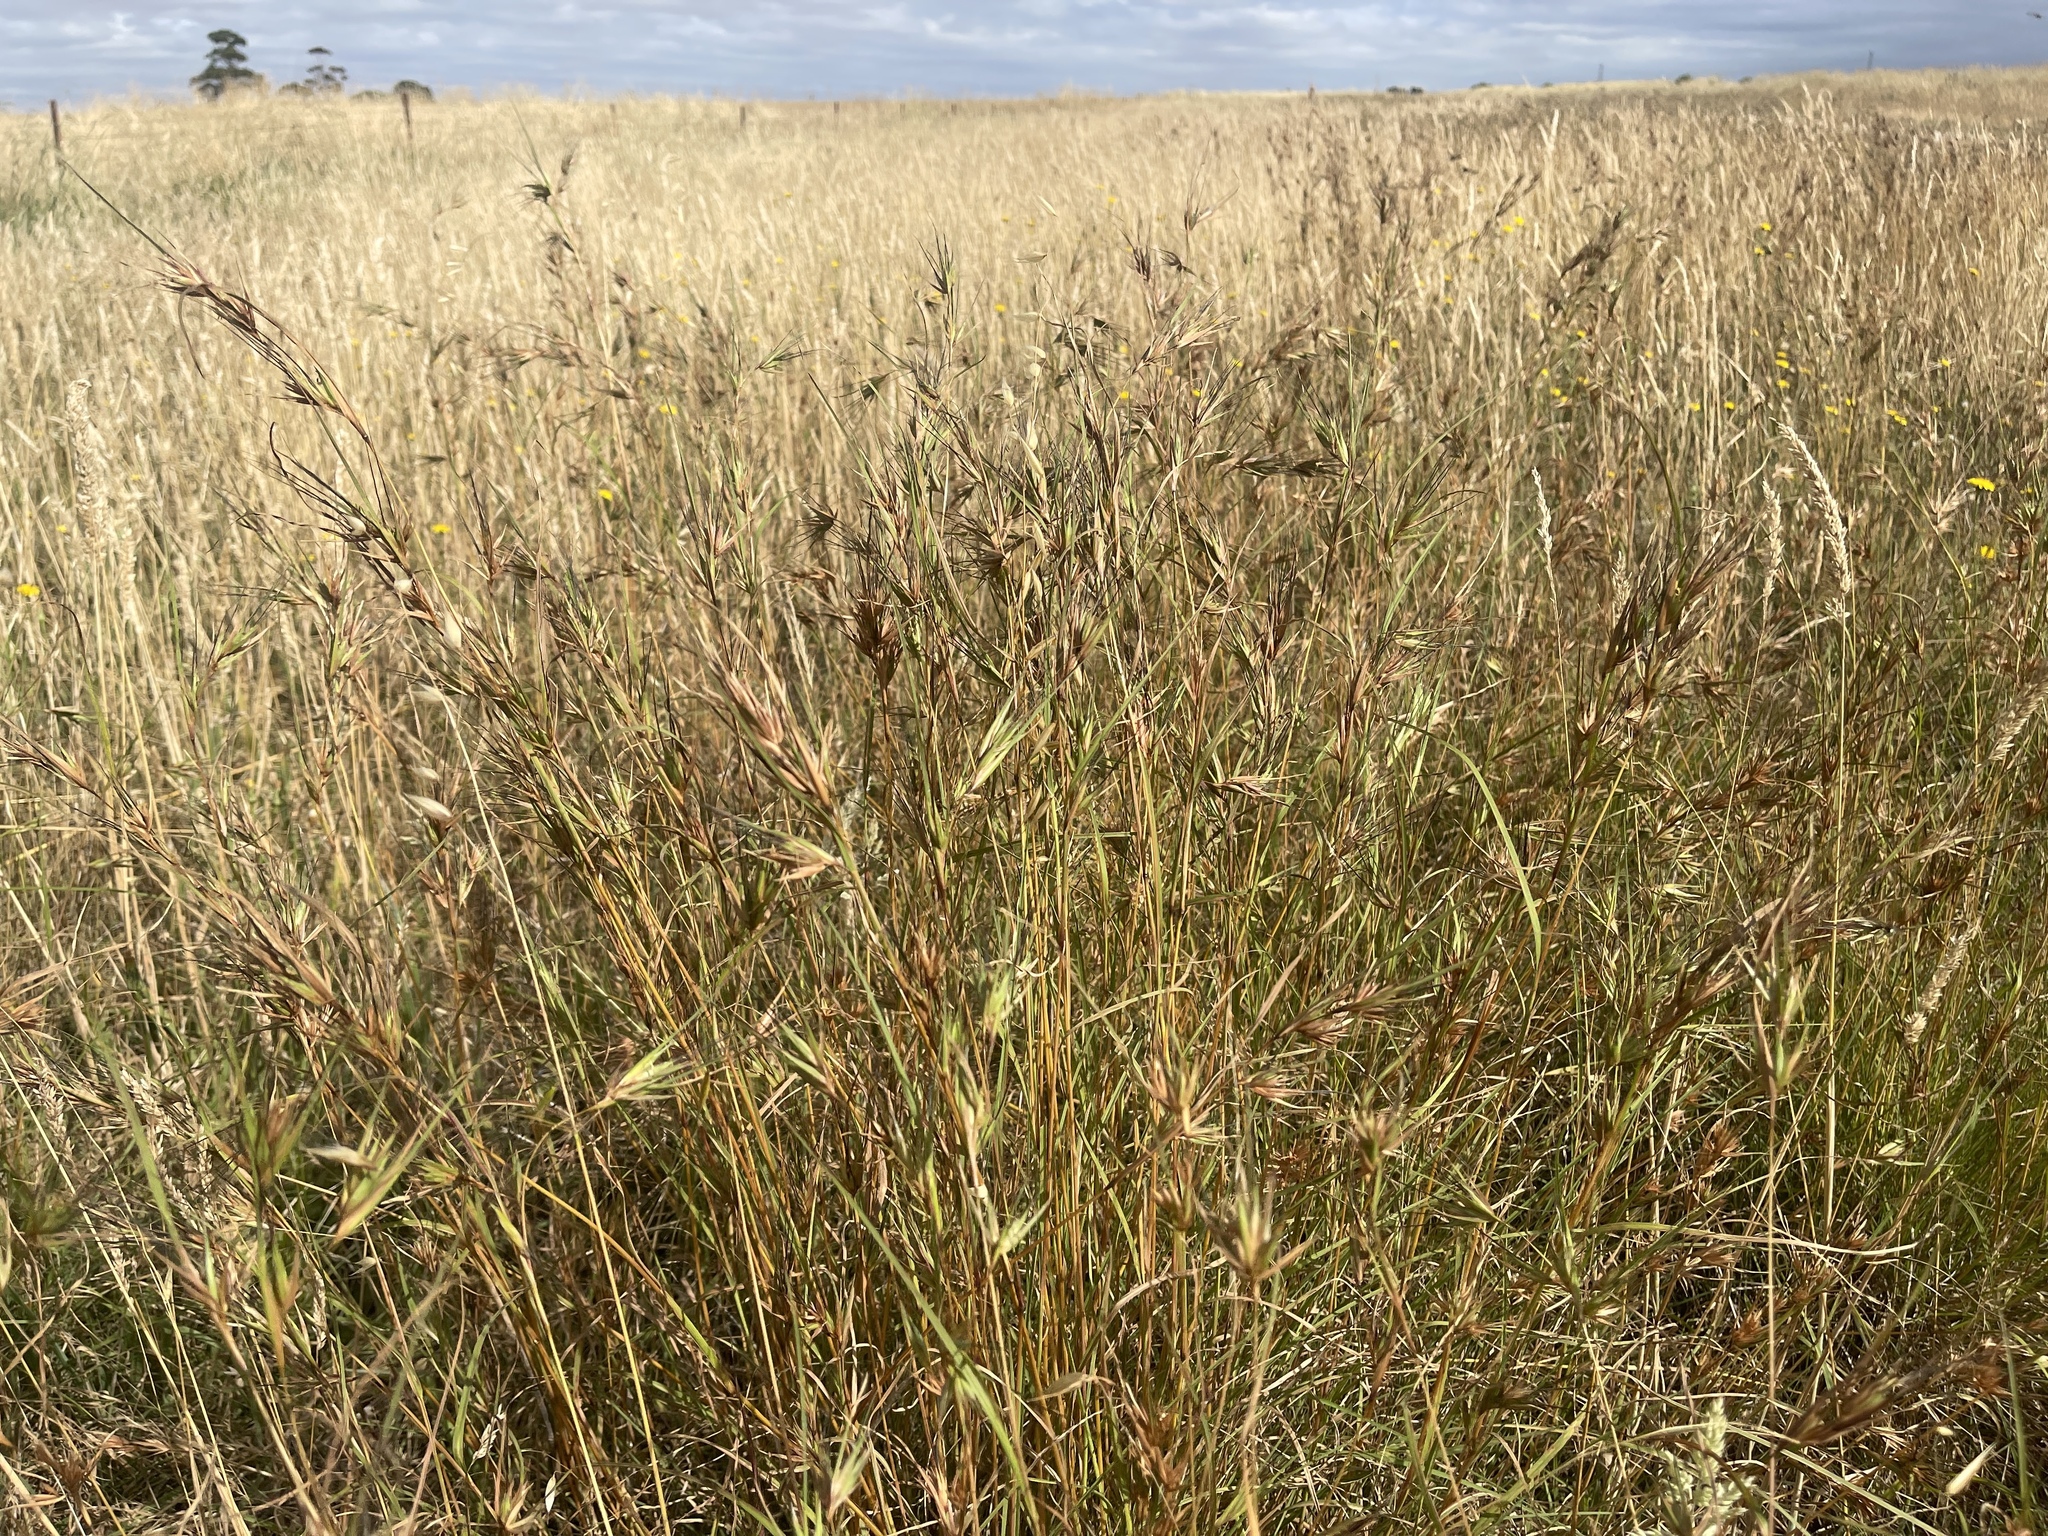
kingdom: Plantae
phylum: Tracheophyta
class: Liliopsida
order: Poales
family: Poaceae
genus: Themeda
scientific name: Themeda triandra
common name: Kangaroo grass
